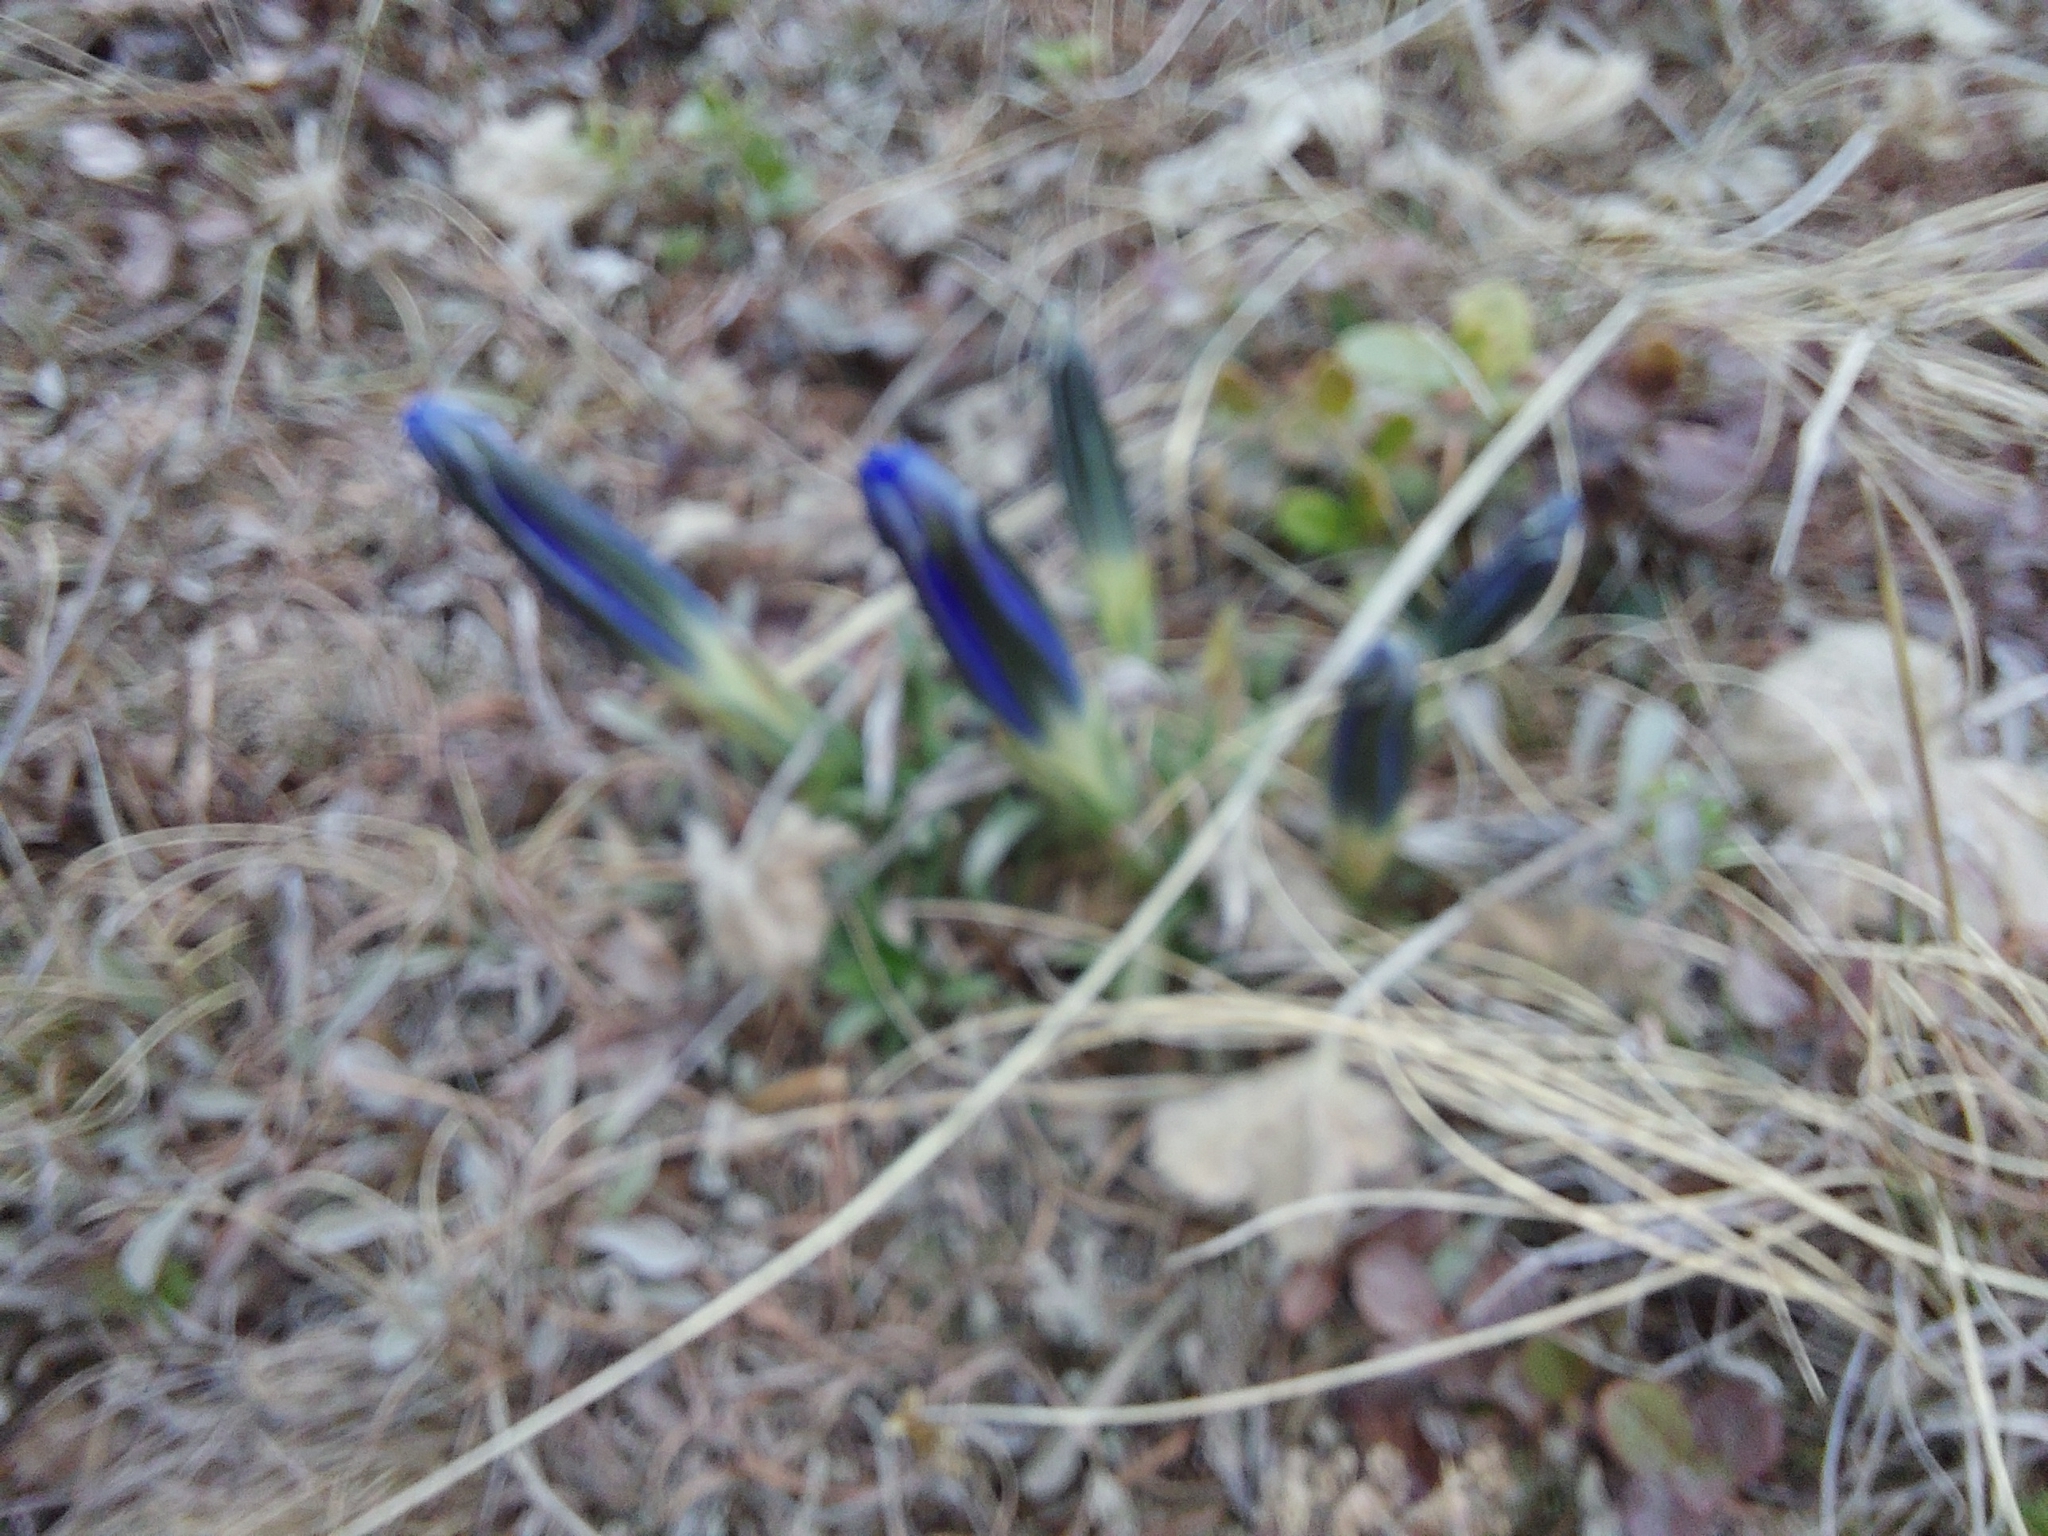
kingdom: Plantae
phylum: Tracheophyta
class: Magnoliopsida
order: Gentianales
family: Gentianaceae
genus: Gentiana
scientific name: Gentiana grandiflora
